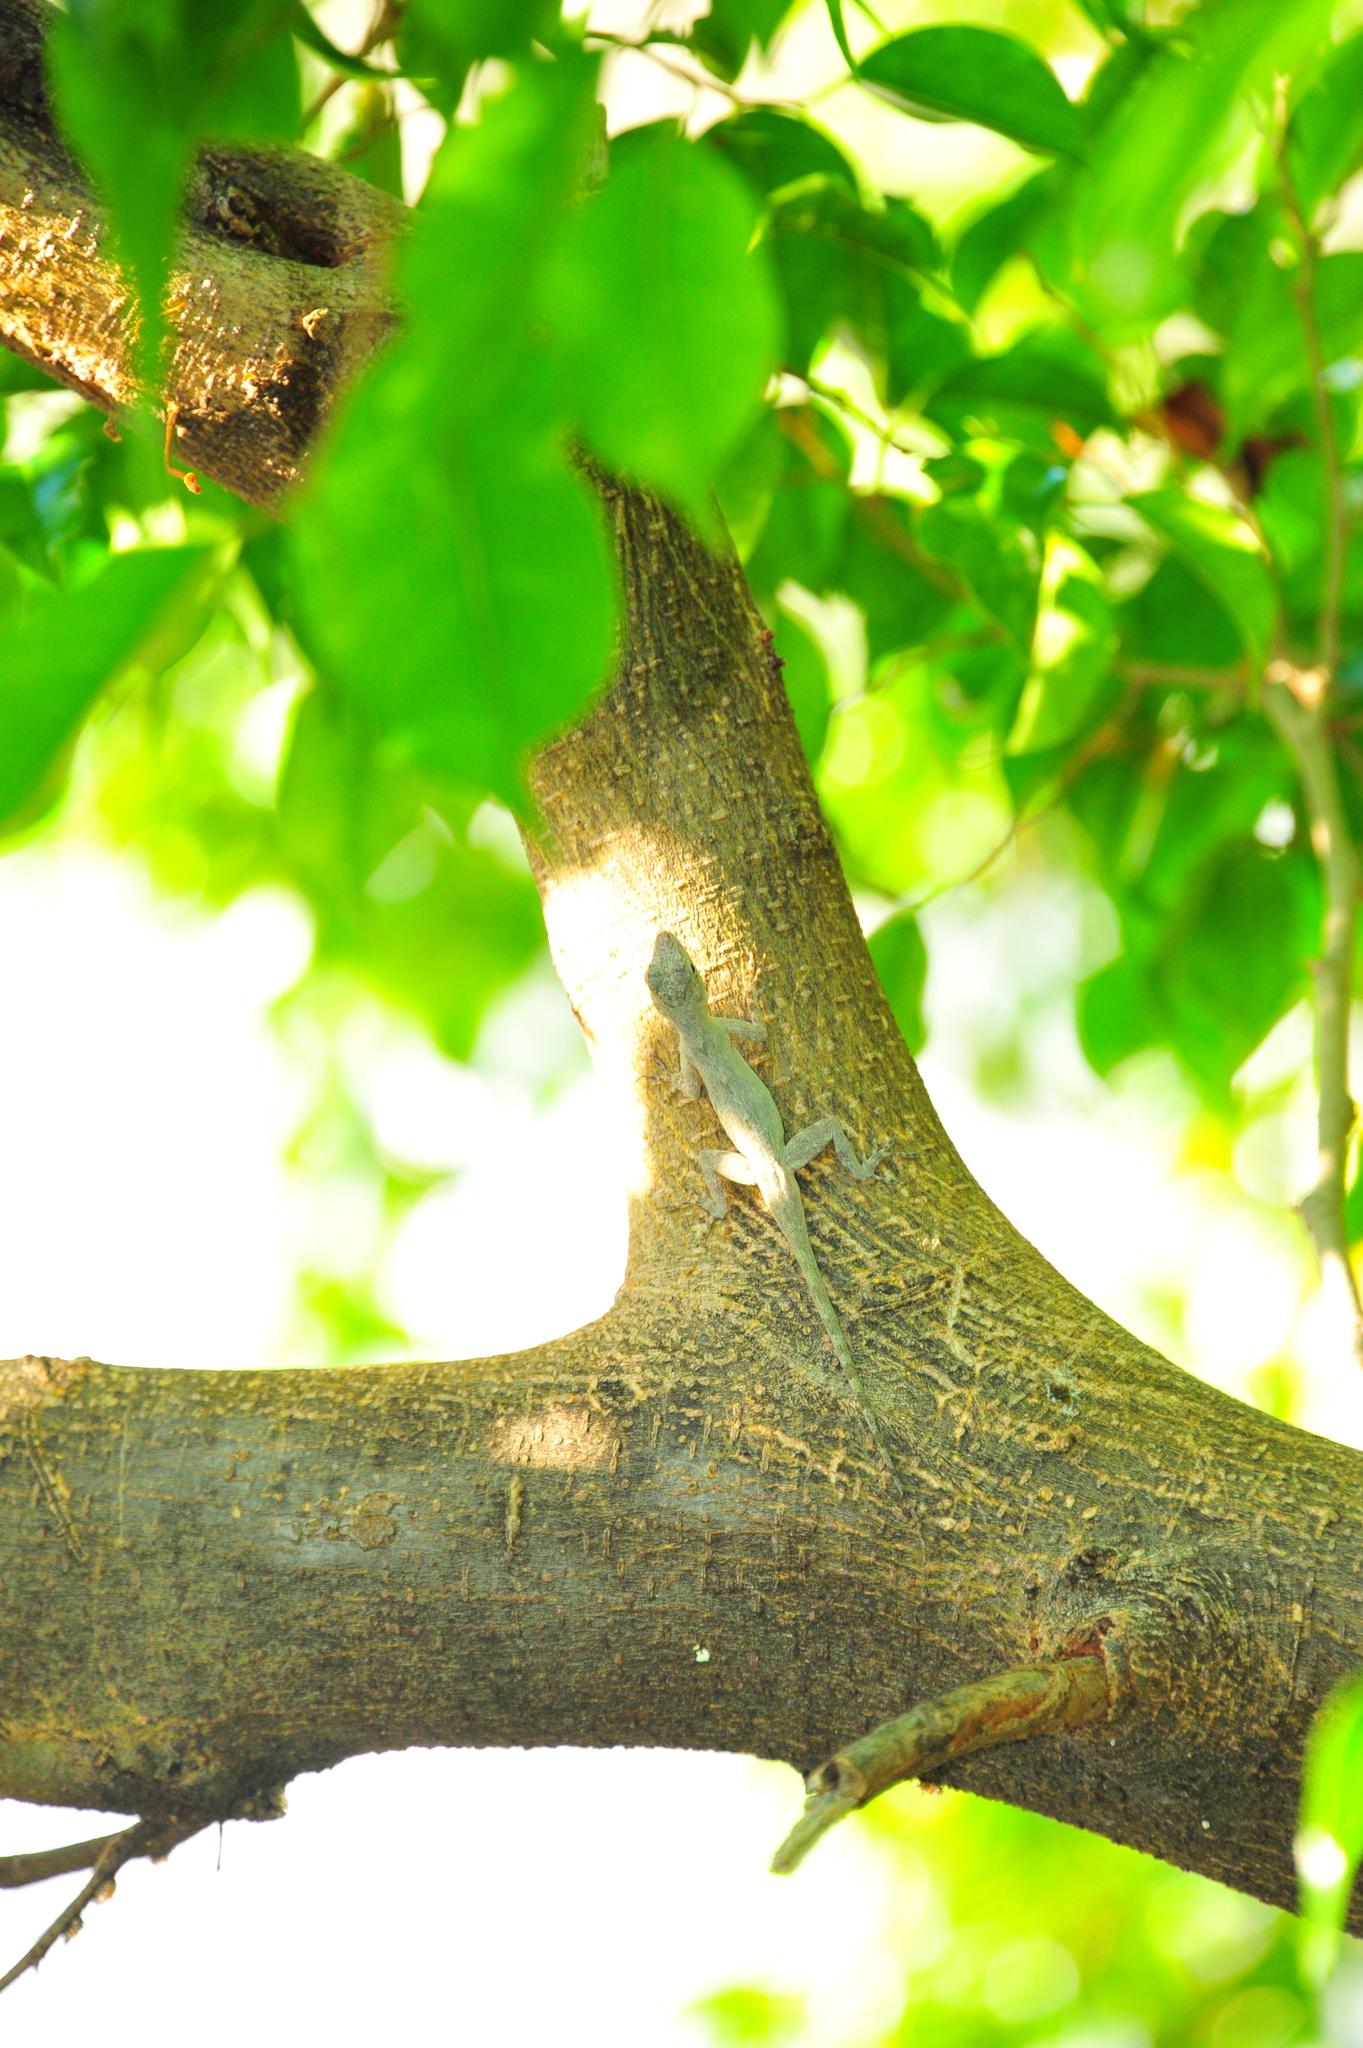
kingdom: Animalia
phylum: Chordata
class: Squamata
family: Dactyloidae
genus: Anolis
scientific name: Anolis distichus
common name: Bark anole
